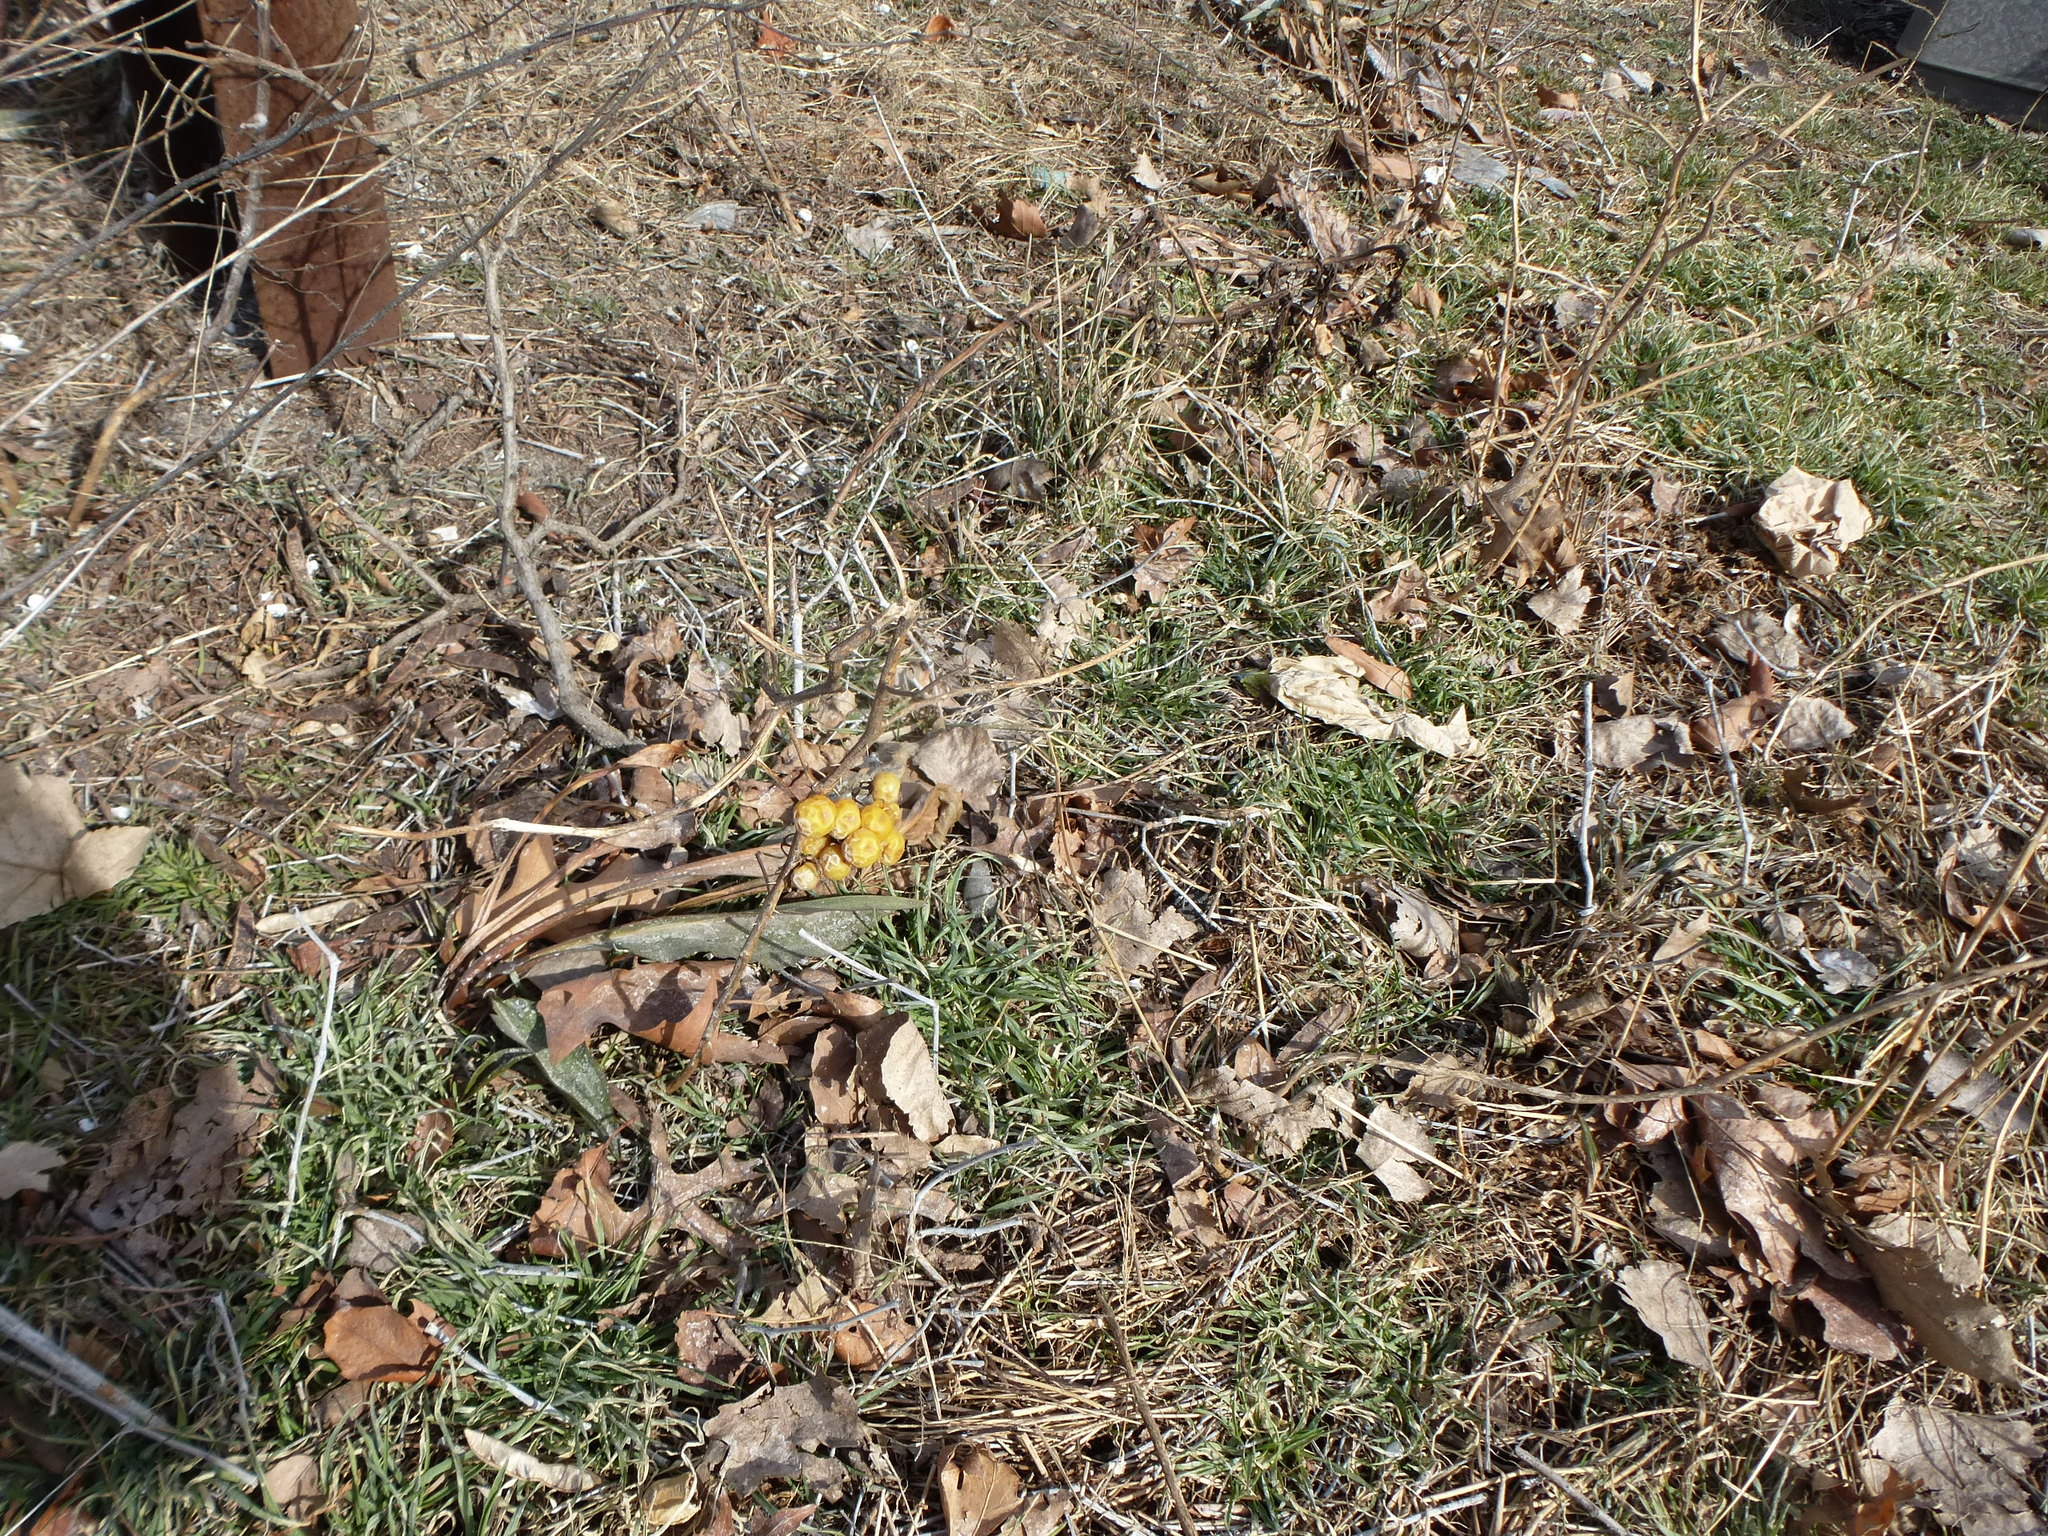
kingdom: Plantae
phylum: Tracheophyta
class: Magnoliopsida
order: Solanales
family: Solanaceae
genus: Solanum
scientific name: Solanum carolinense
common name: Horse-nettle
